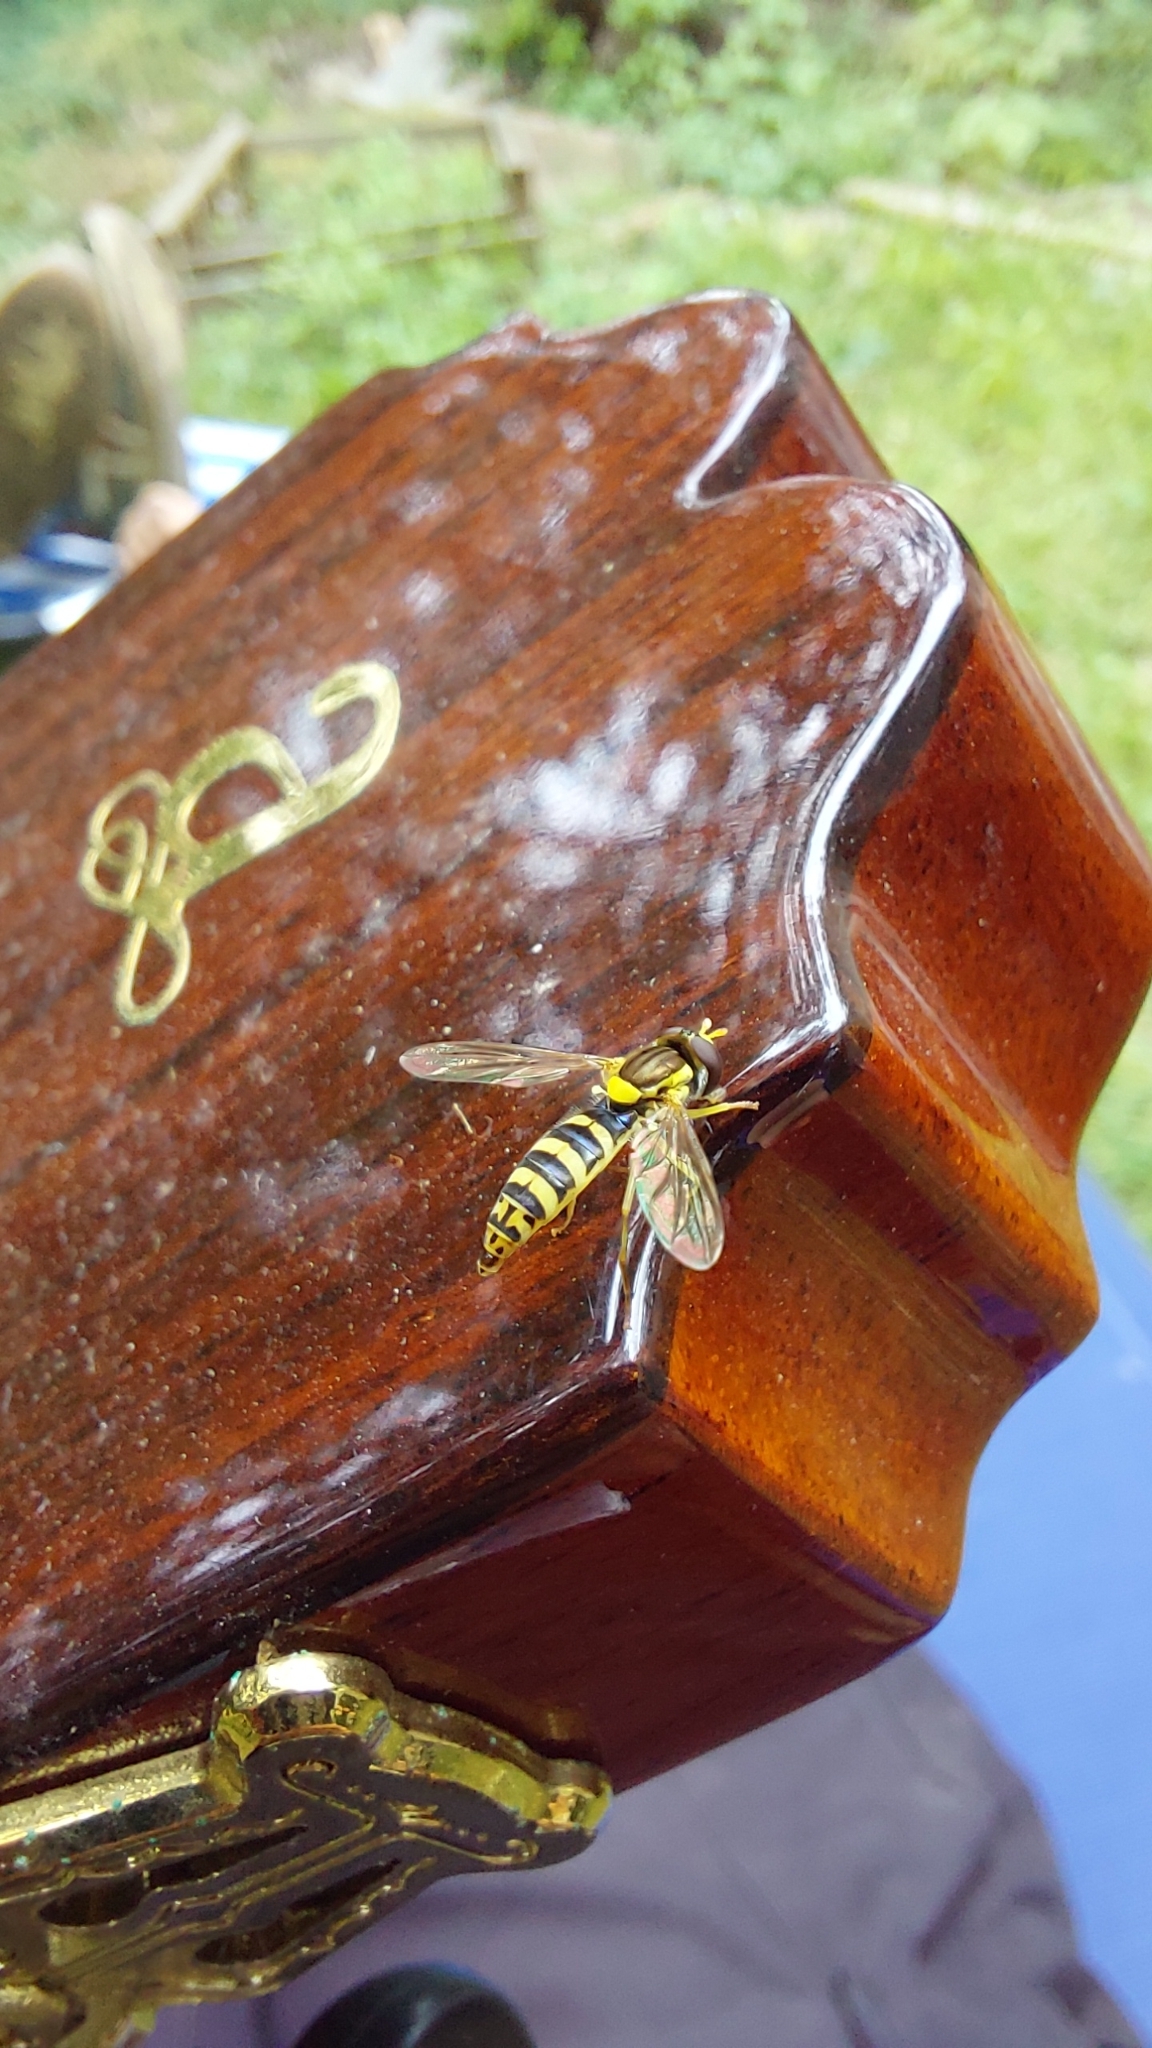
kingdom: Animalia
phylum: Arthropoda
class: Insecta
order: Diptera
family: Syrphidae
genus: Sphaerophoria
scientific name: Sphaerophoria
